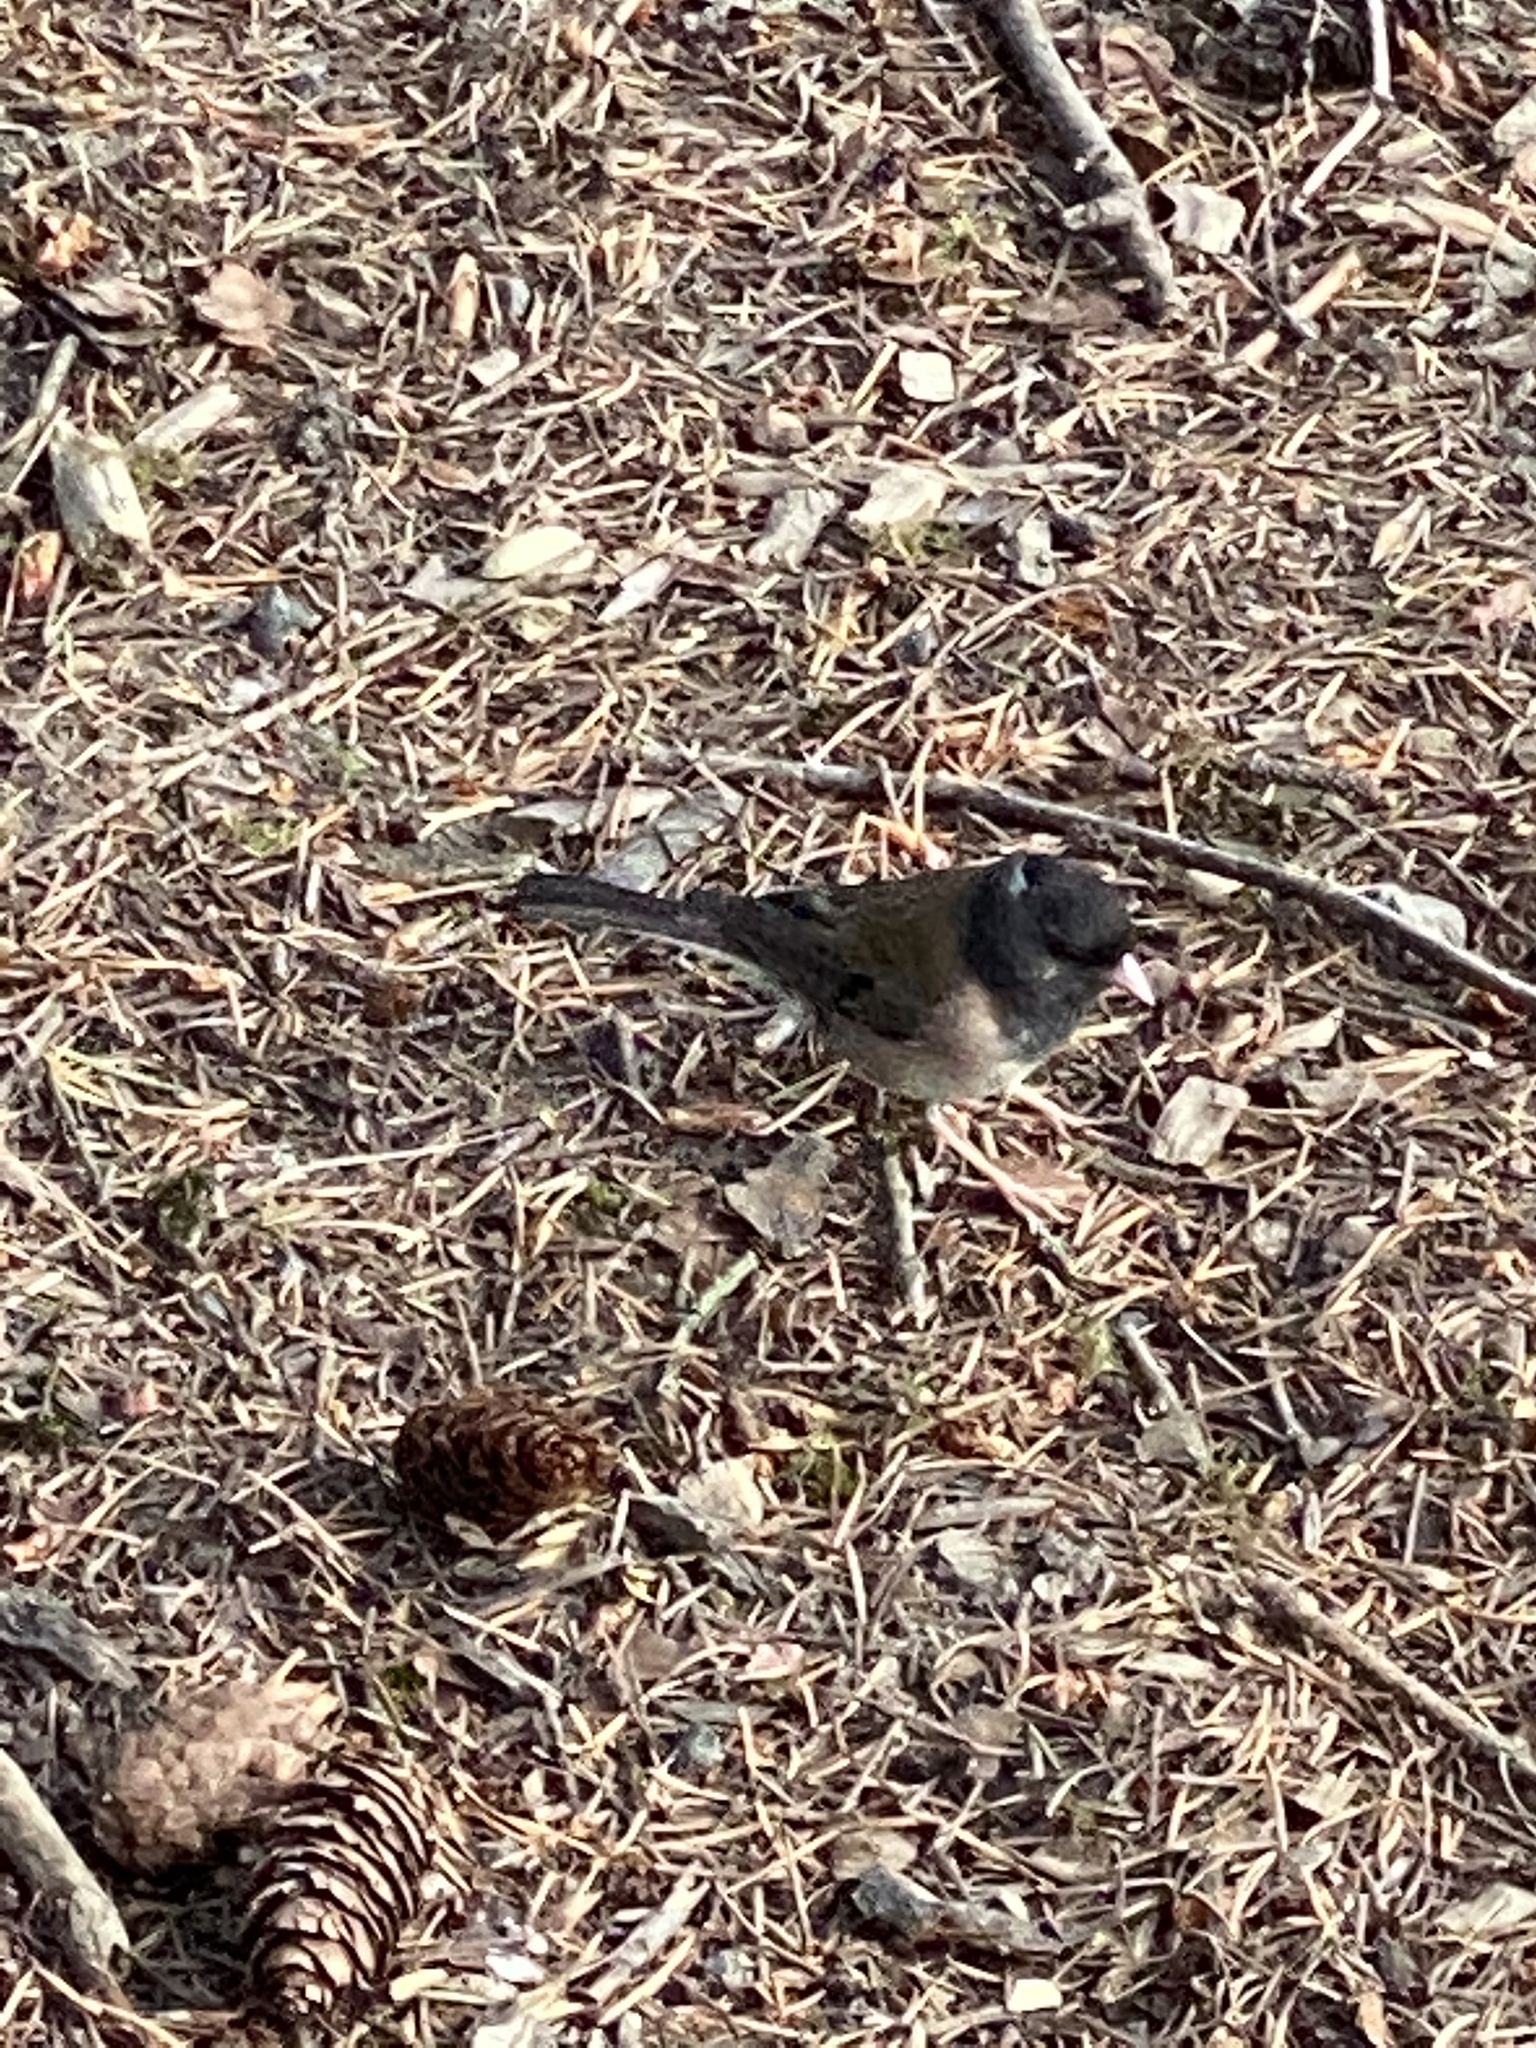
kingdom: Animalia
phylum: Chordata
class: Aves
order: Passeriformes
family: Passerellidae
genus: Junco
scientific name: Junco hyemalis
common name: Dark-eyed junco
